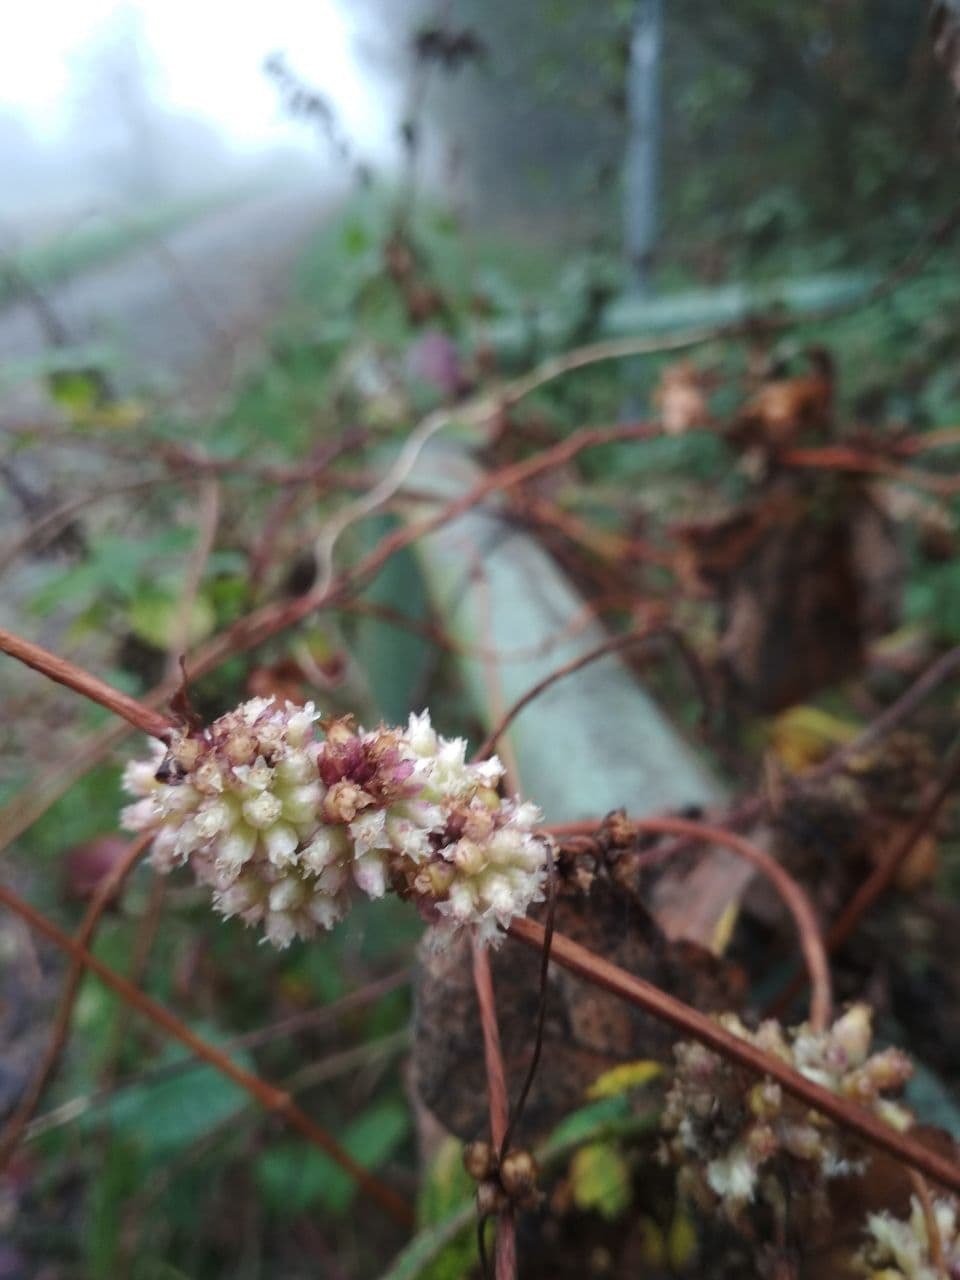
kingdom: Plantae
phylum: Tracheophyta
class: Magnoliopsida
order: Solanales
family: Convolvulaceae
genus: Cuscuta
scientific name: Cuscuta europaea
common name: Greater dodder
